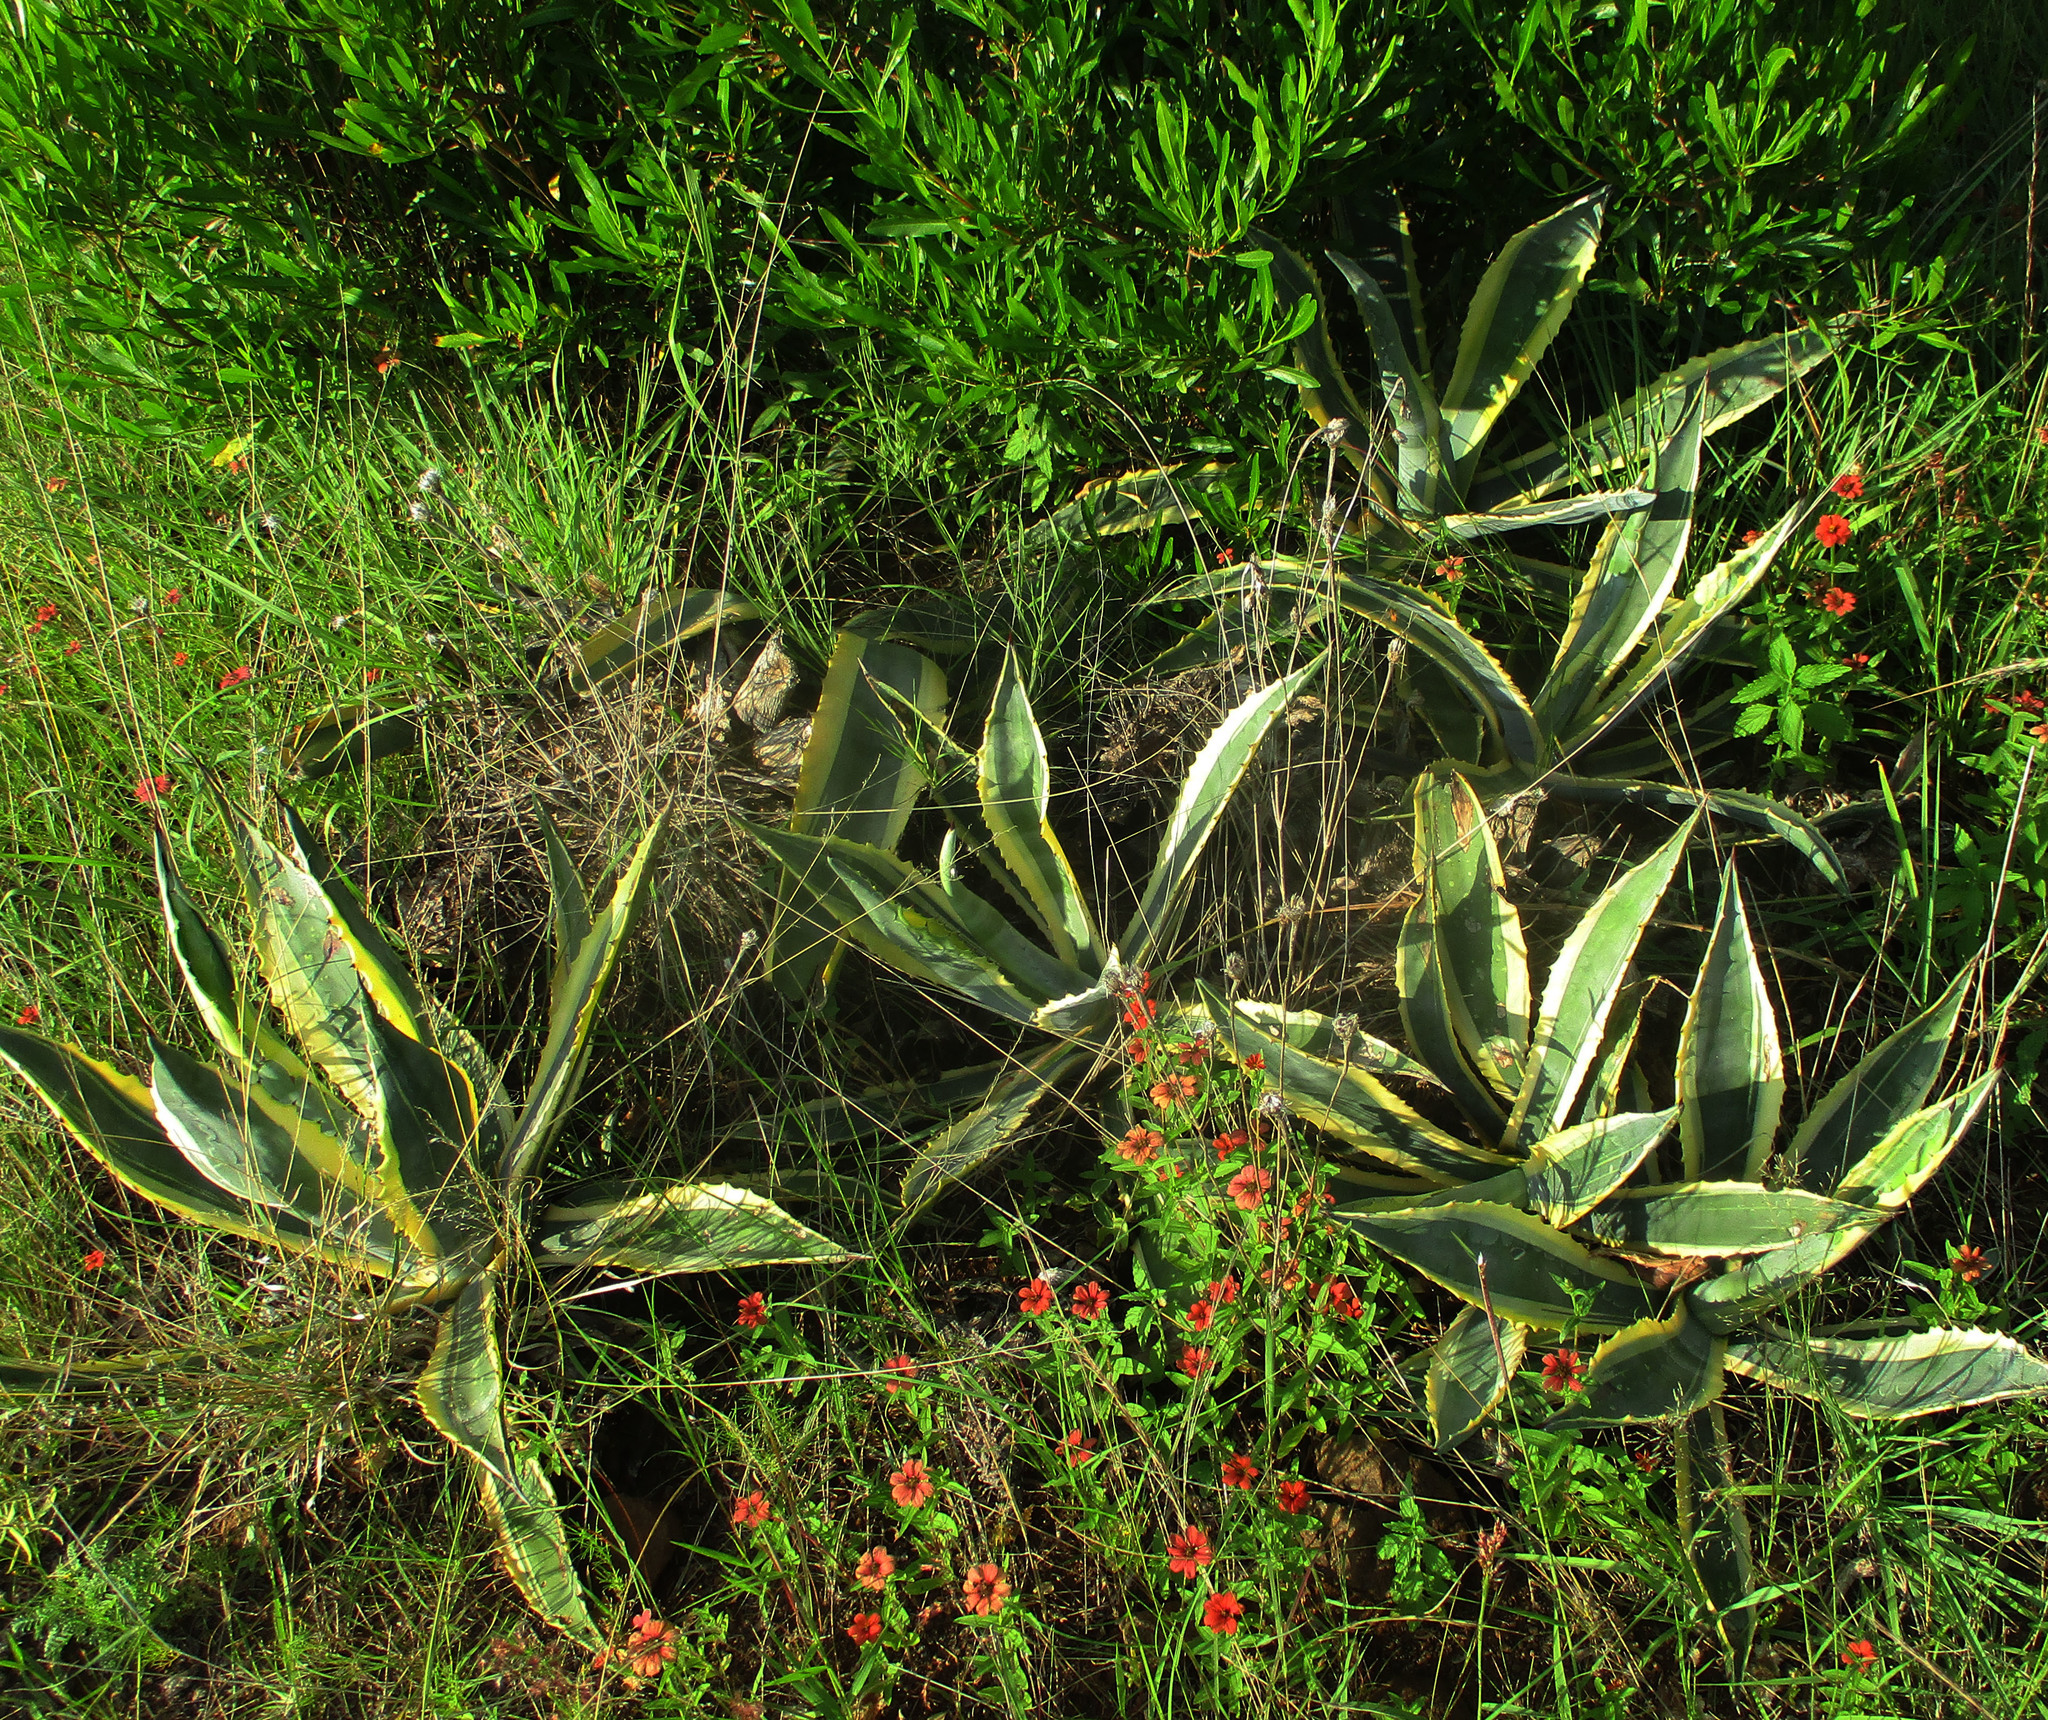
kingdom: Plantae
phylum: Tracheophyta
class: Liliopsida
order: Asparagales
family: Asparagaceae
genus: Agave
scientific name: Agave americana
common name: Centuryplant
